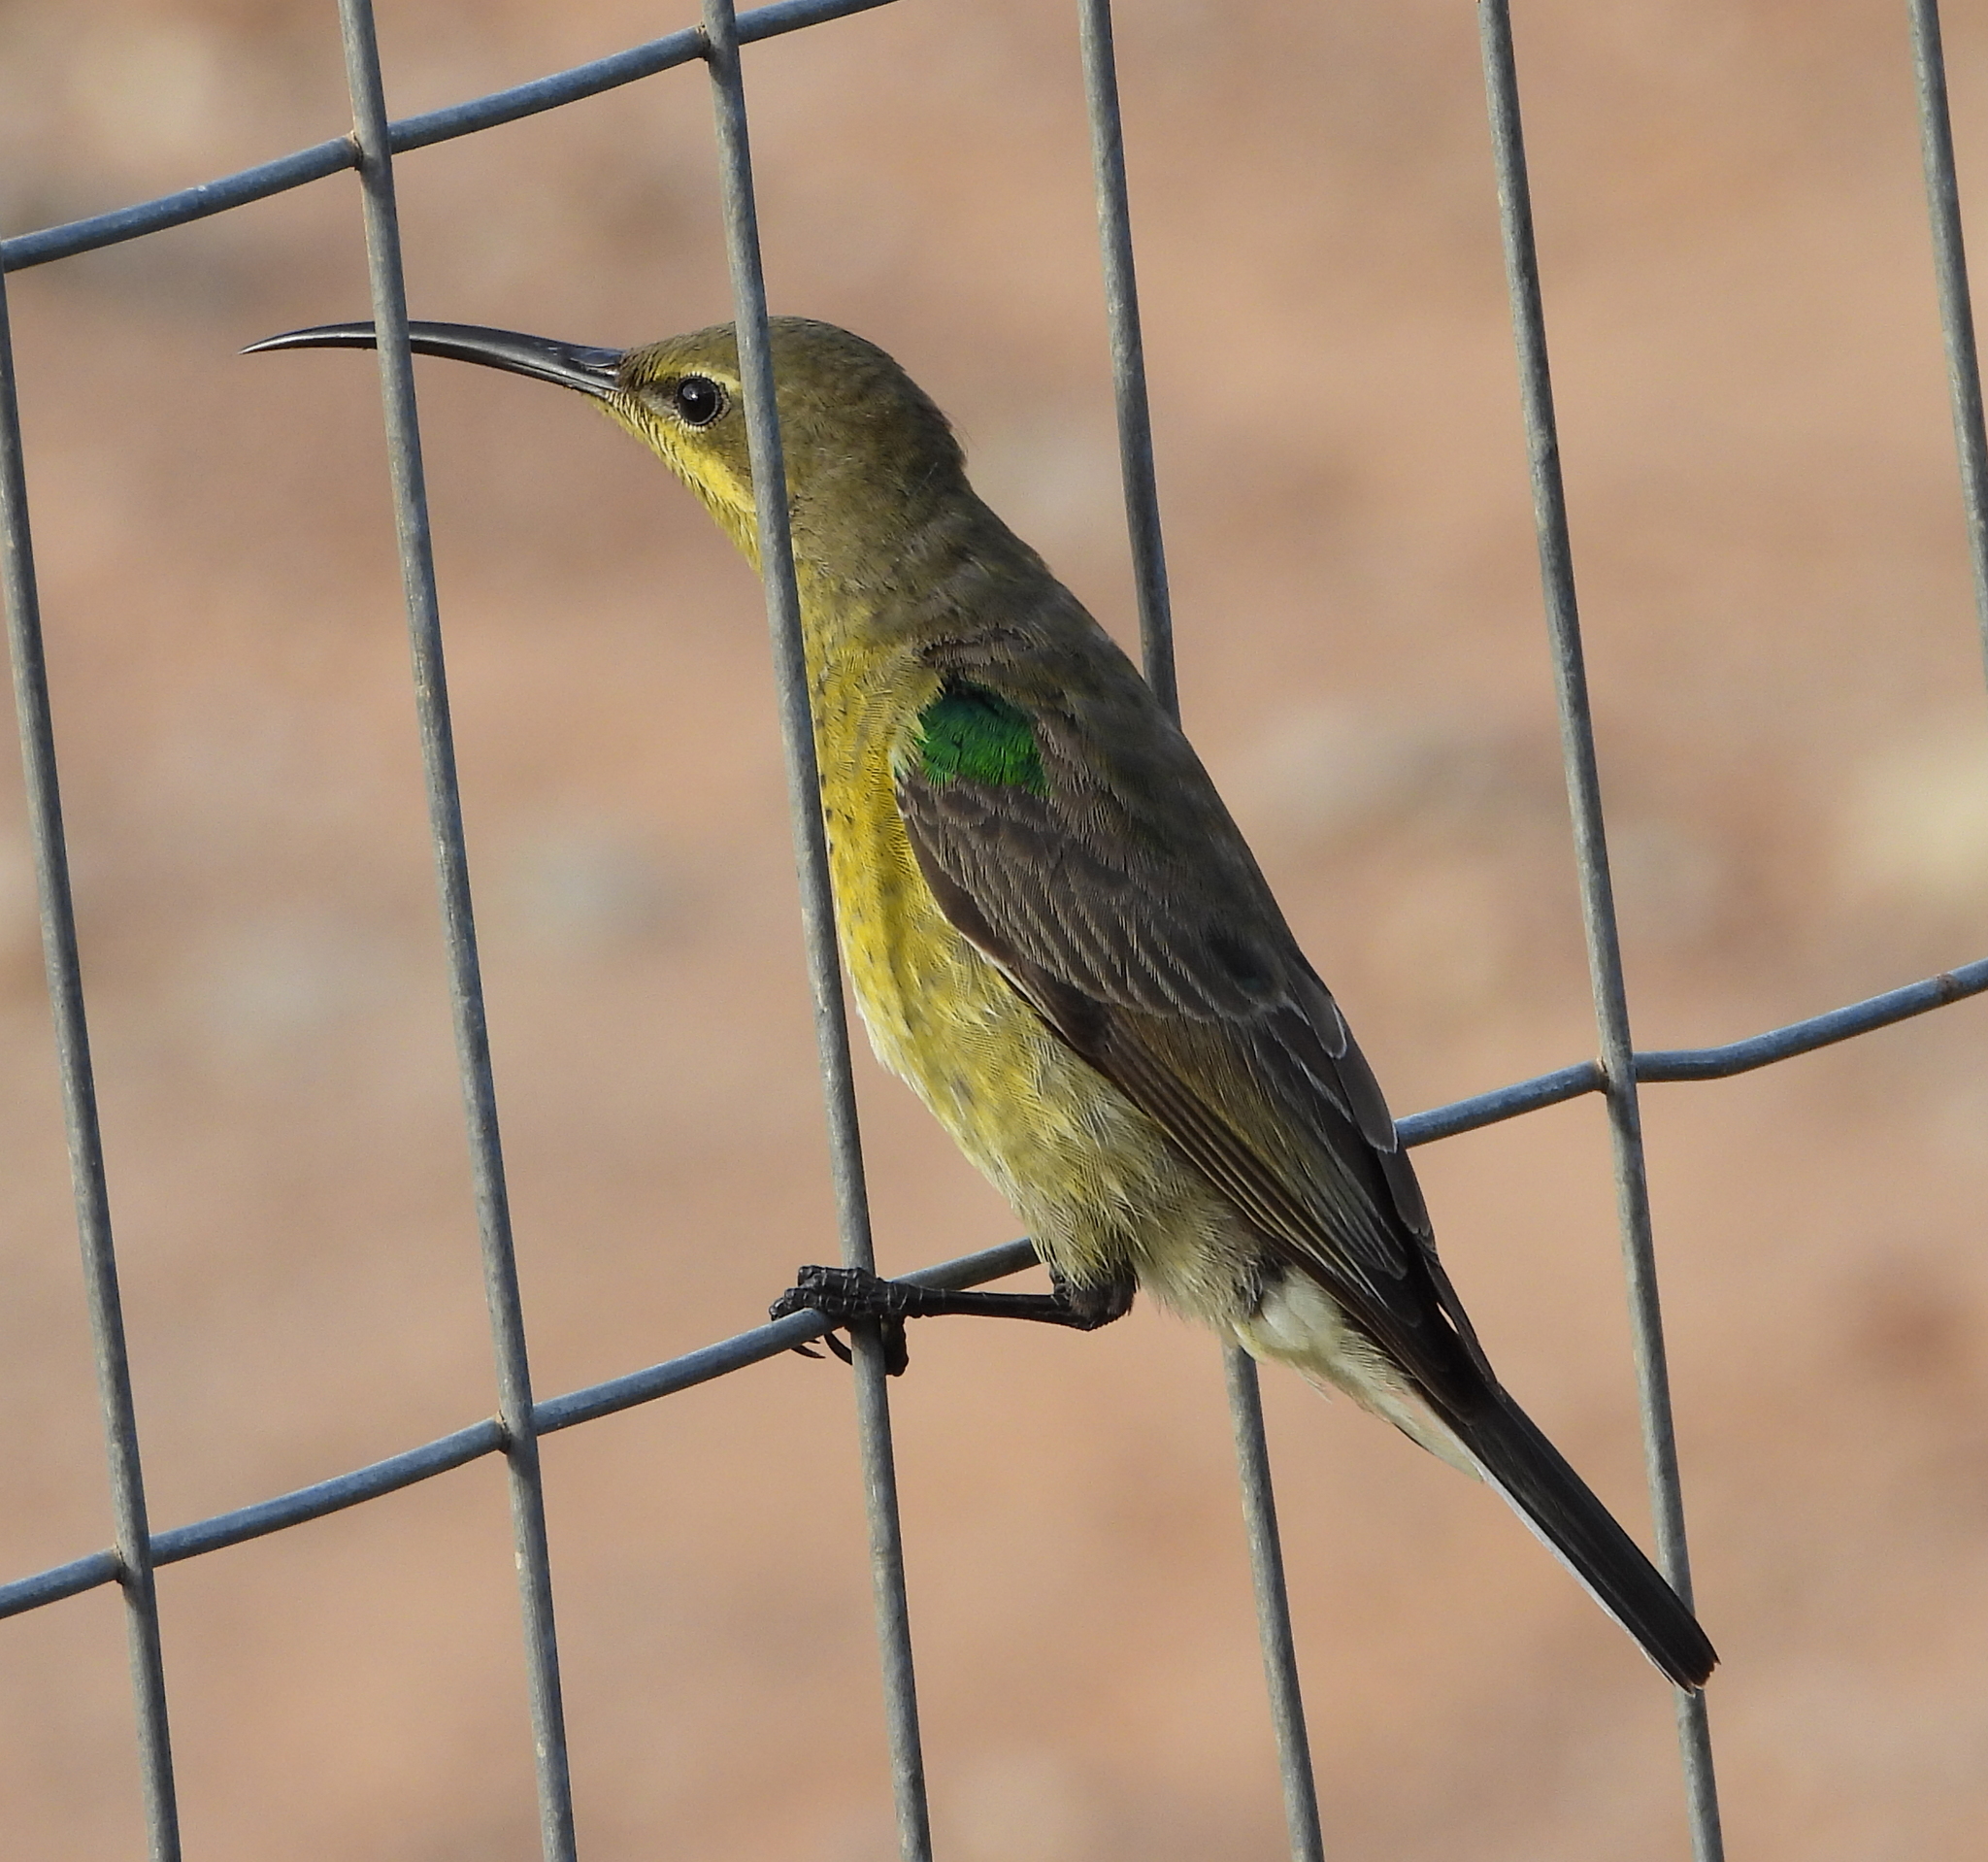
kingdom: Animalia
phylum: Chordata
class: Aves
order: Passeriformes
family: Nectariniidae
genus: Nectarinia
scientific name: Nectarinia famosa
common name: Malachite sunbird
